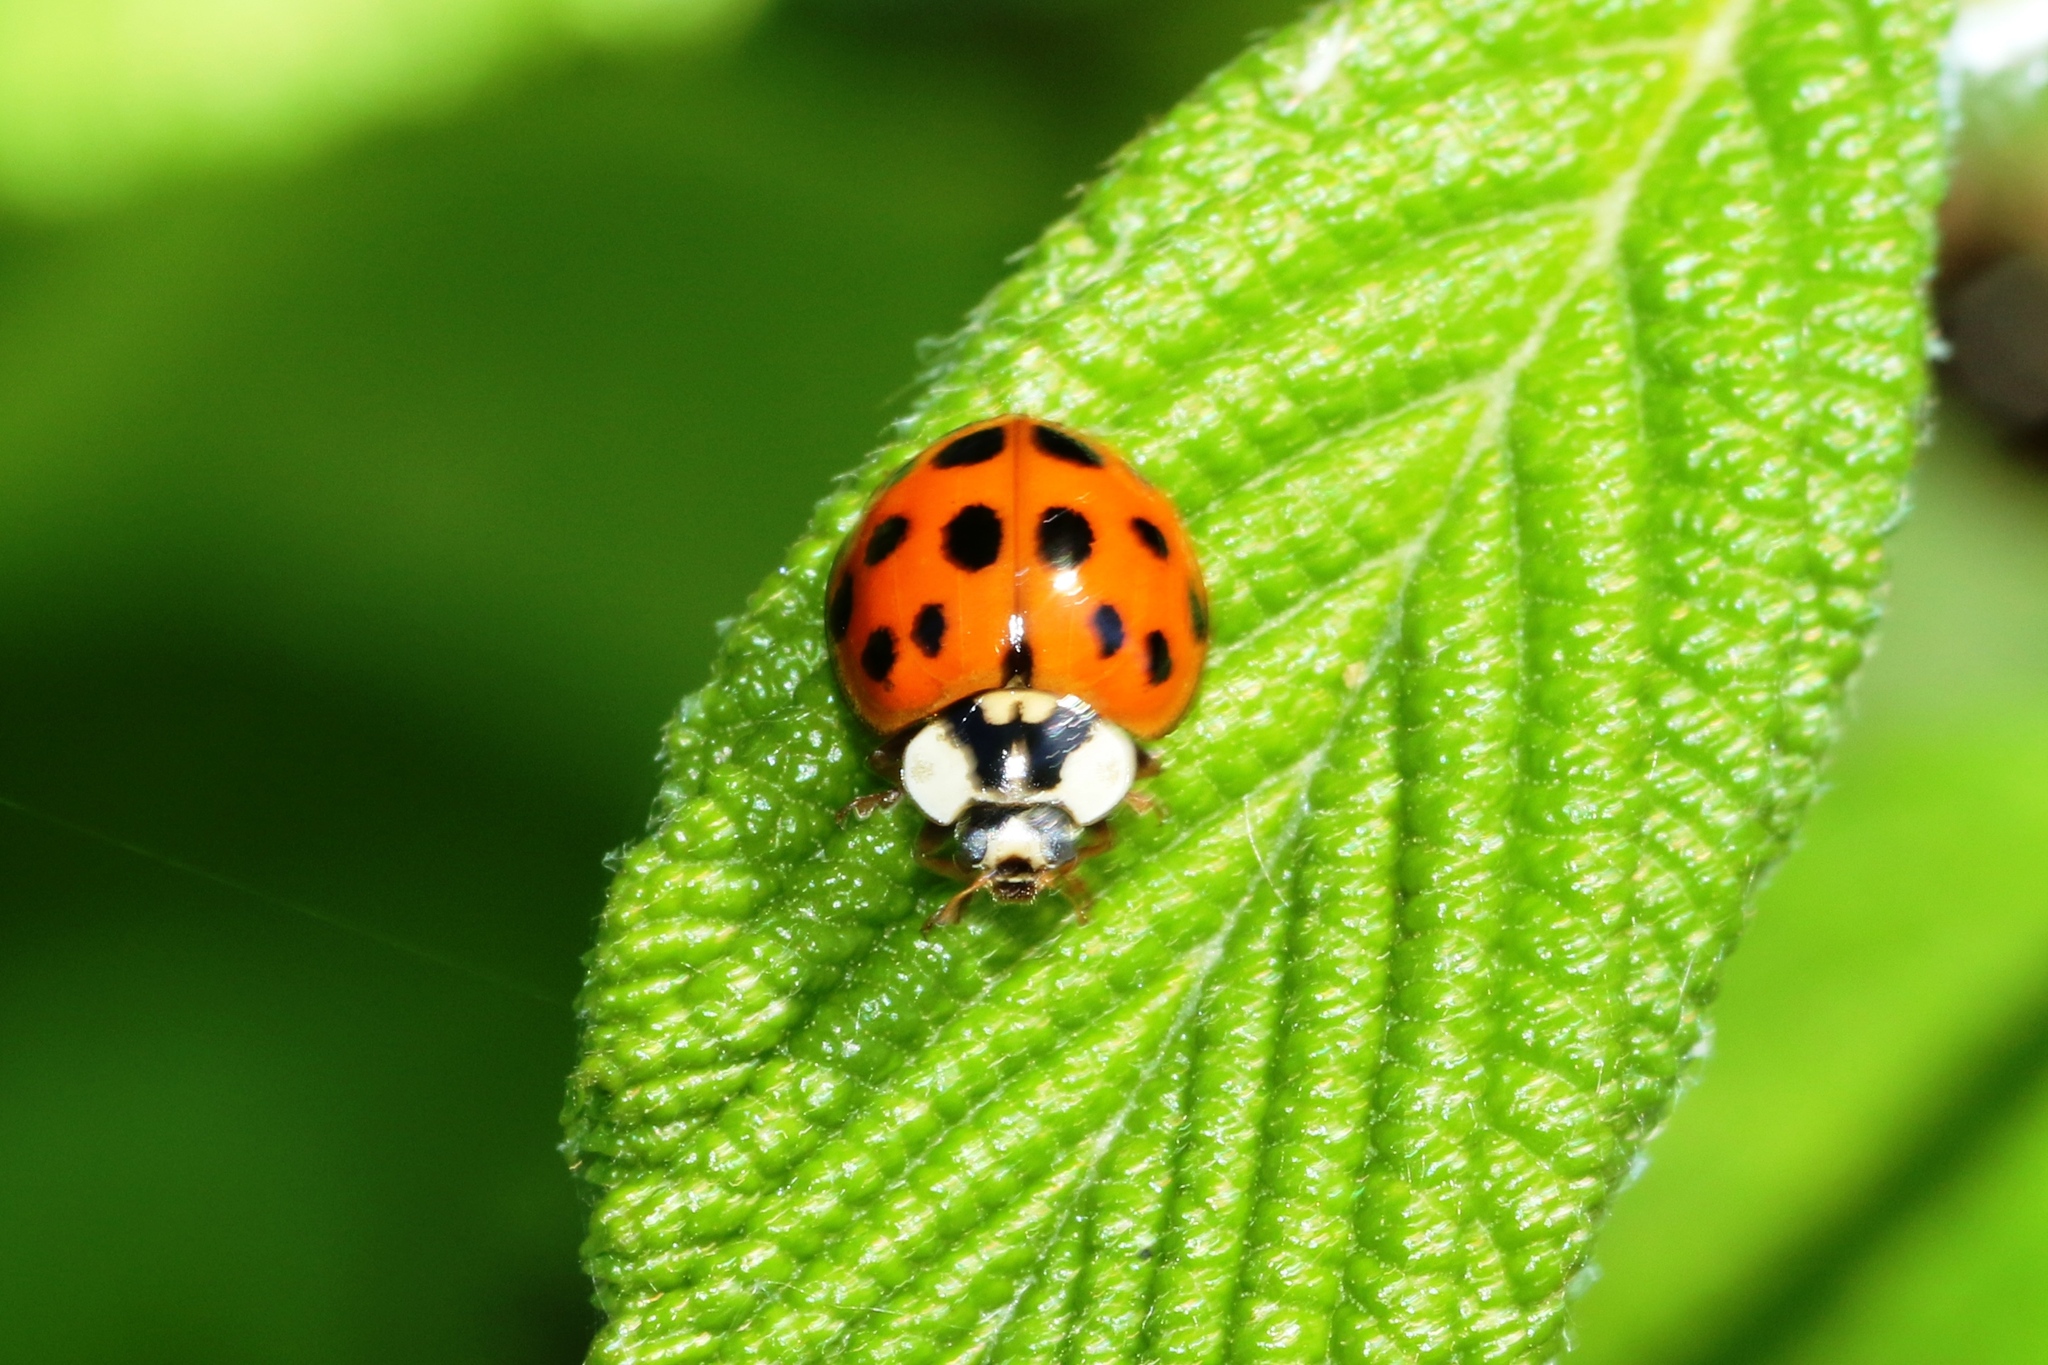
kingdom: Animalia
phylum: Arthropoda
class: Insecta
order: Coleoptera
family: Coccinellidae
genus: Harmonia
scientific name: Harmonia axyridis
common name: Harlequin ladybird
